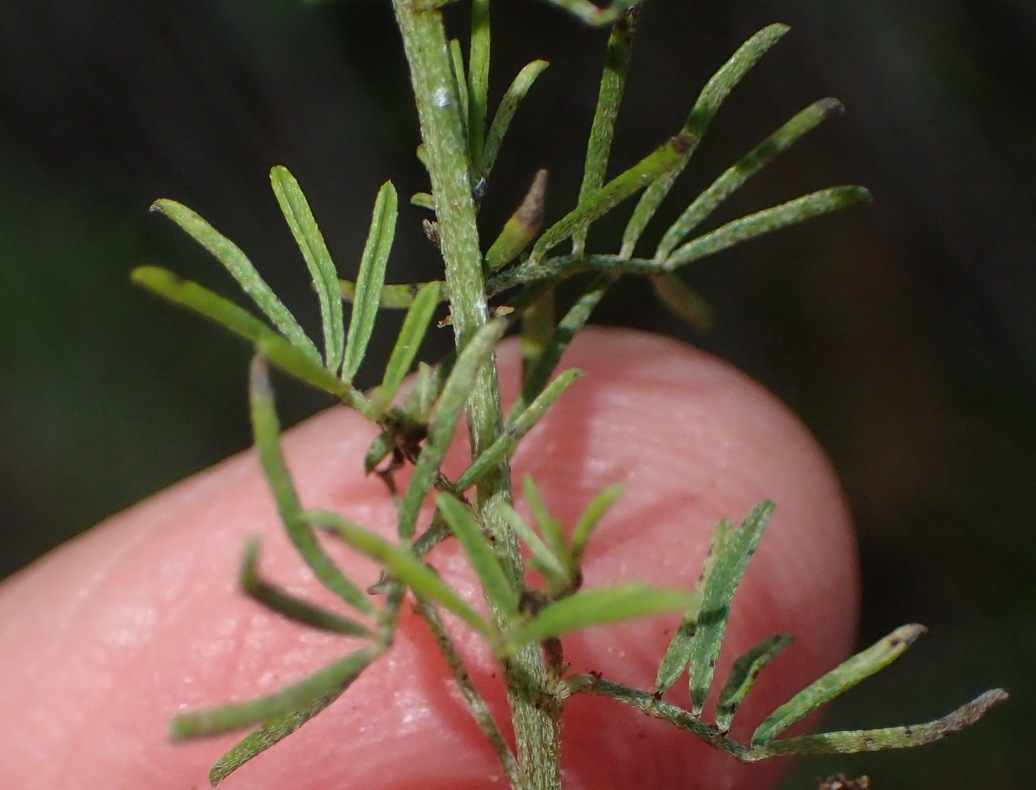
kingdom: Plantae
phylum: Tracheophyta
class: Magnoliopsida
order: Fabales
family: Fabaceae
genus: Indigofera
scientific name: Indigofera verrucosa
